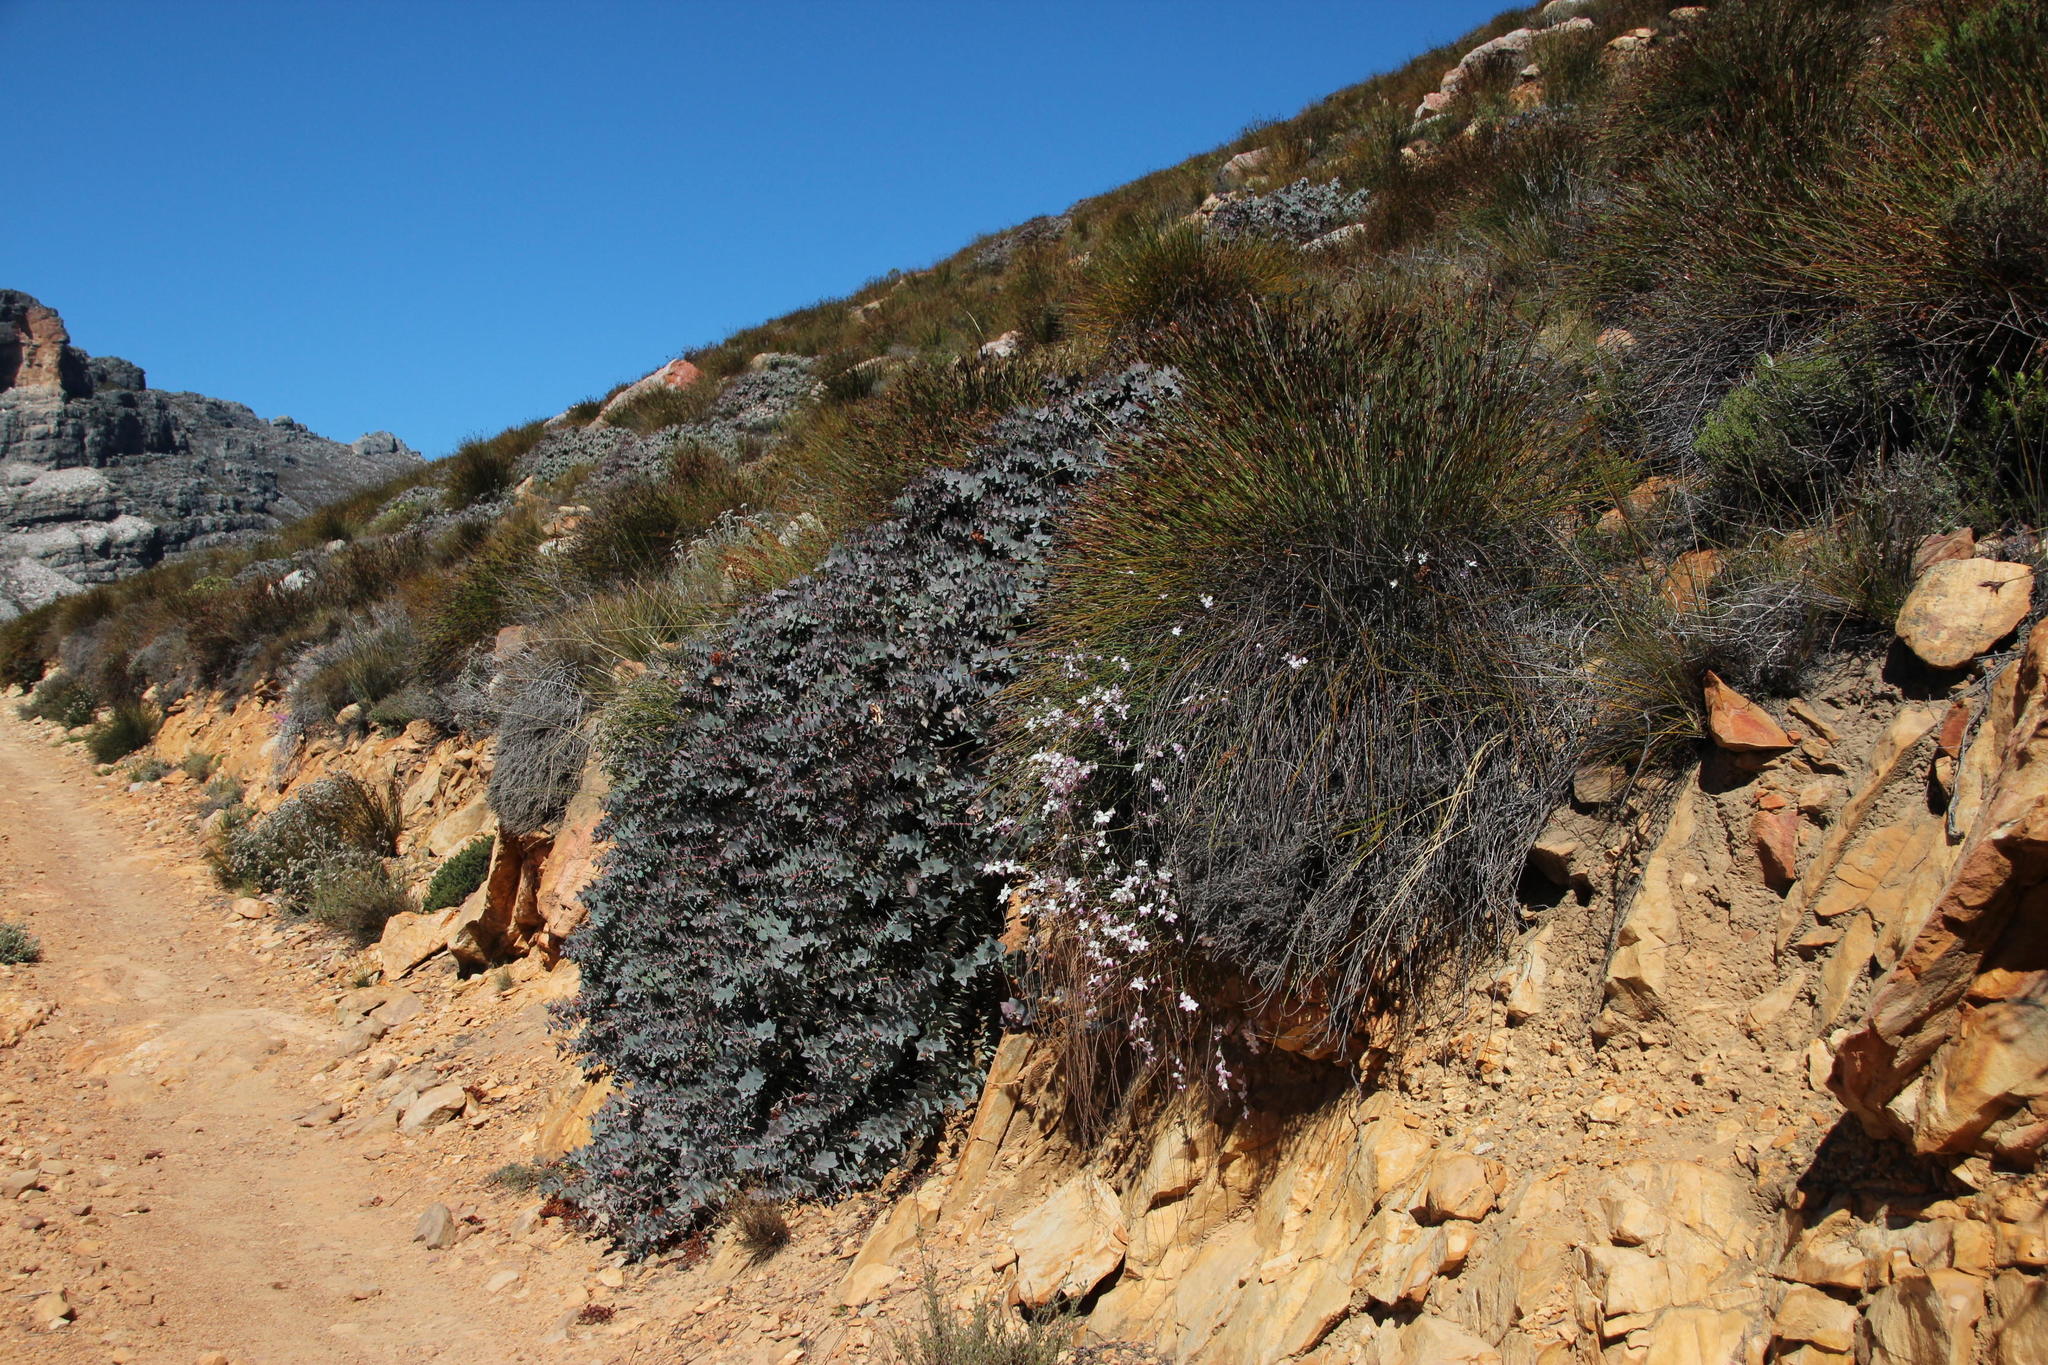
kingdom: Plantae
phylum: Tracheophyta
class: Magnoliopsida
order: Proteales
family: Proteaceae
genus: Protea
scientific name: Protea amplexicaulis
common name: Clasping-leaf sugarbush
